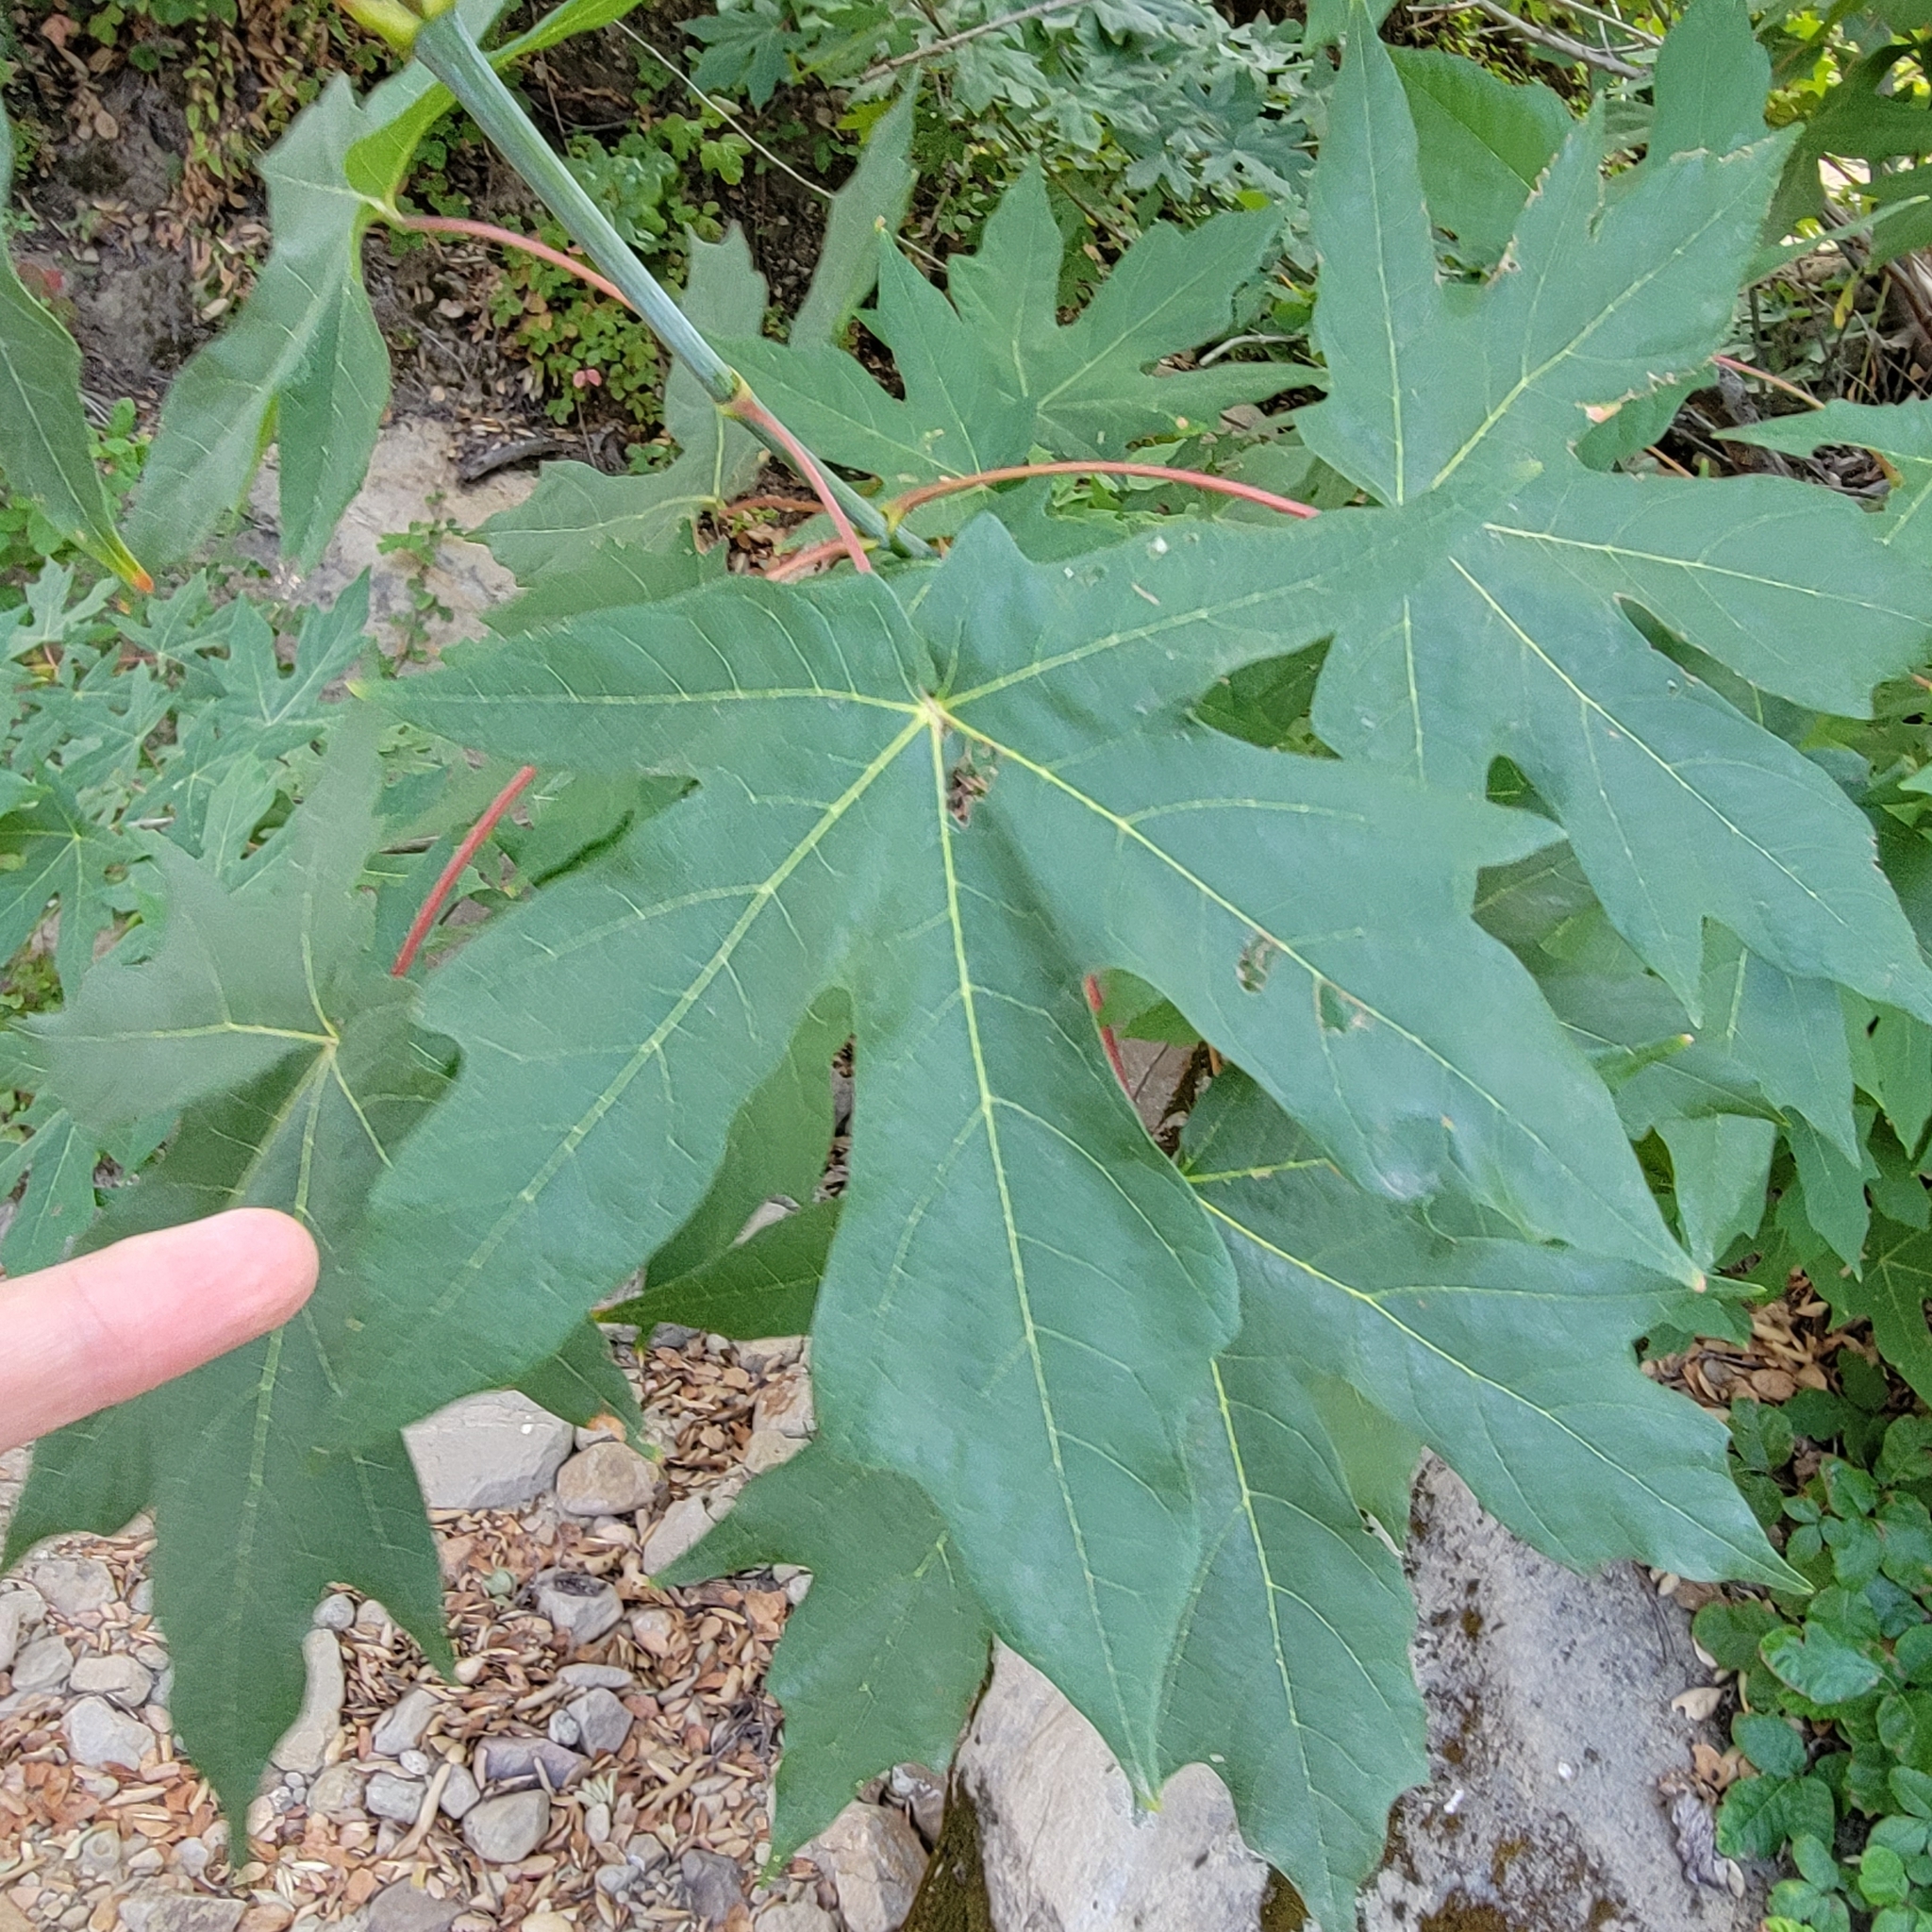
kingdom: Plantae
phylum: Tracheophyta
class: Magnoliopsida
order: Sapindales
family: Sapindaceae
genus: Acer
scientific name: Acer macrophyllum
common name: Oregon maple
